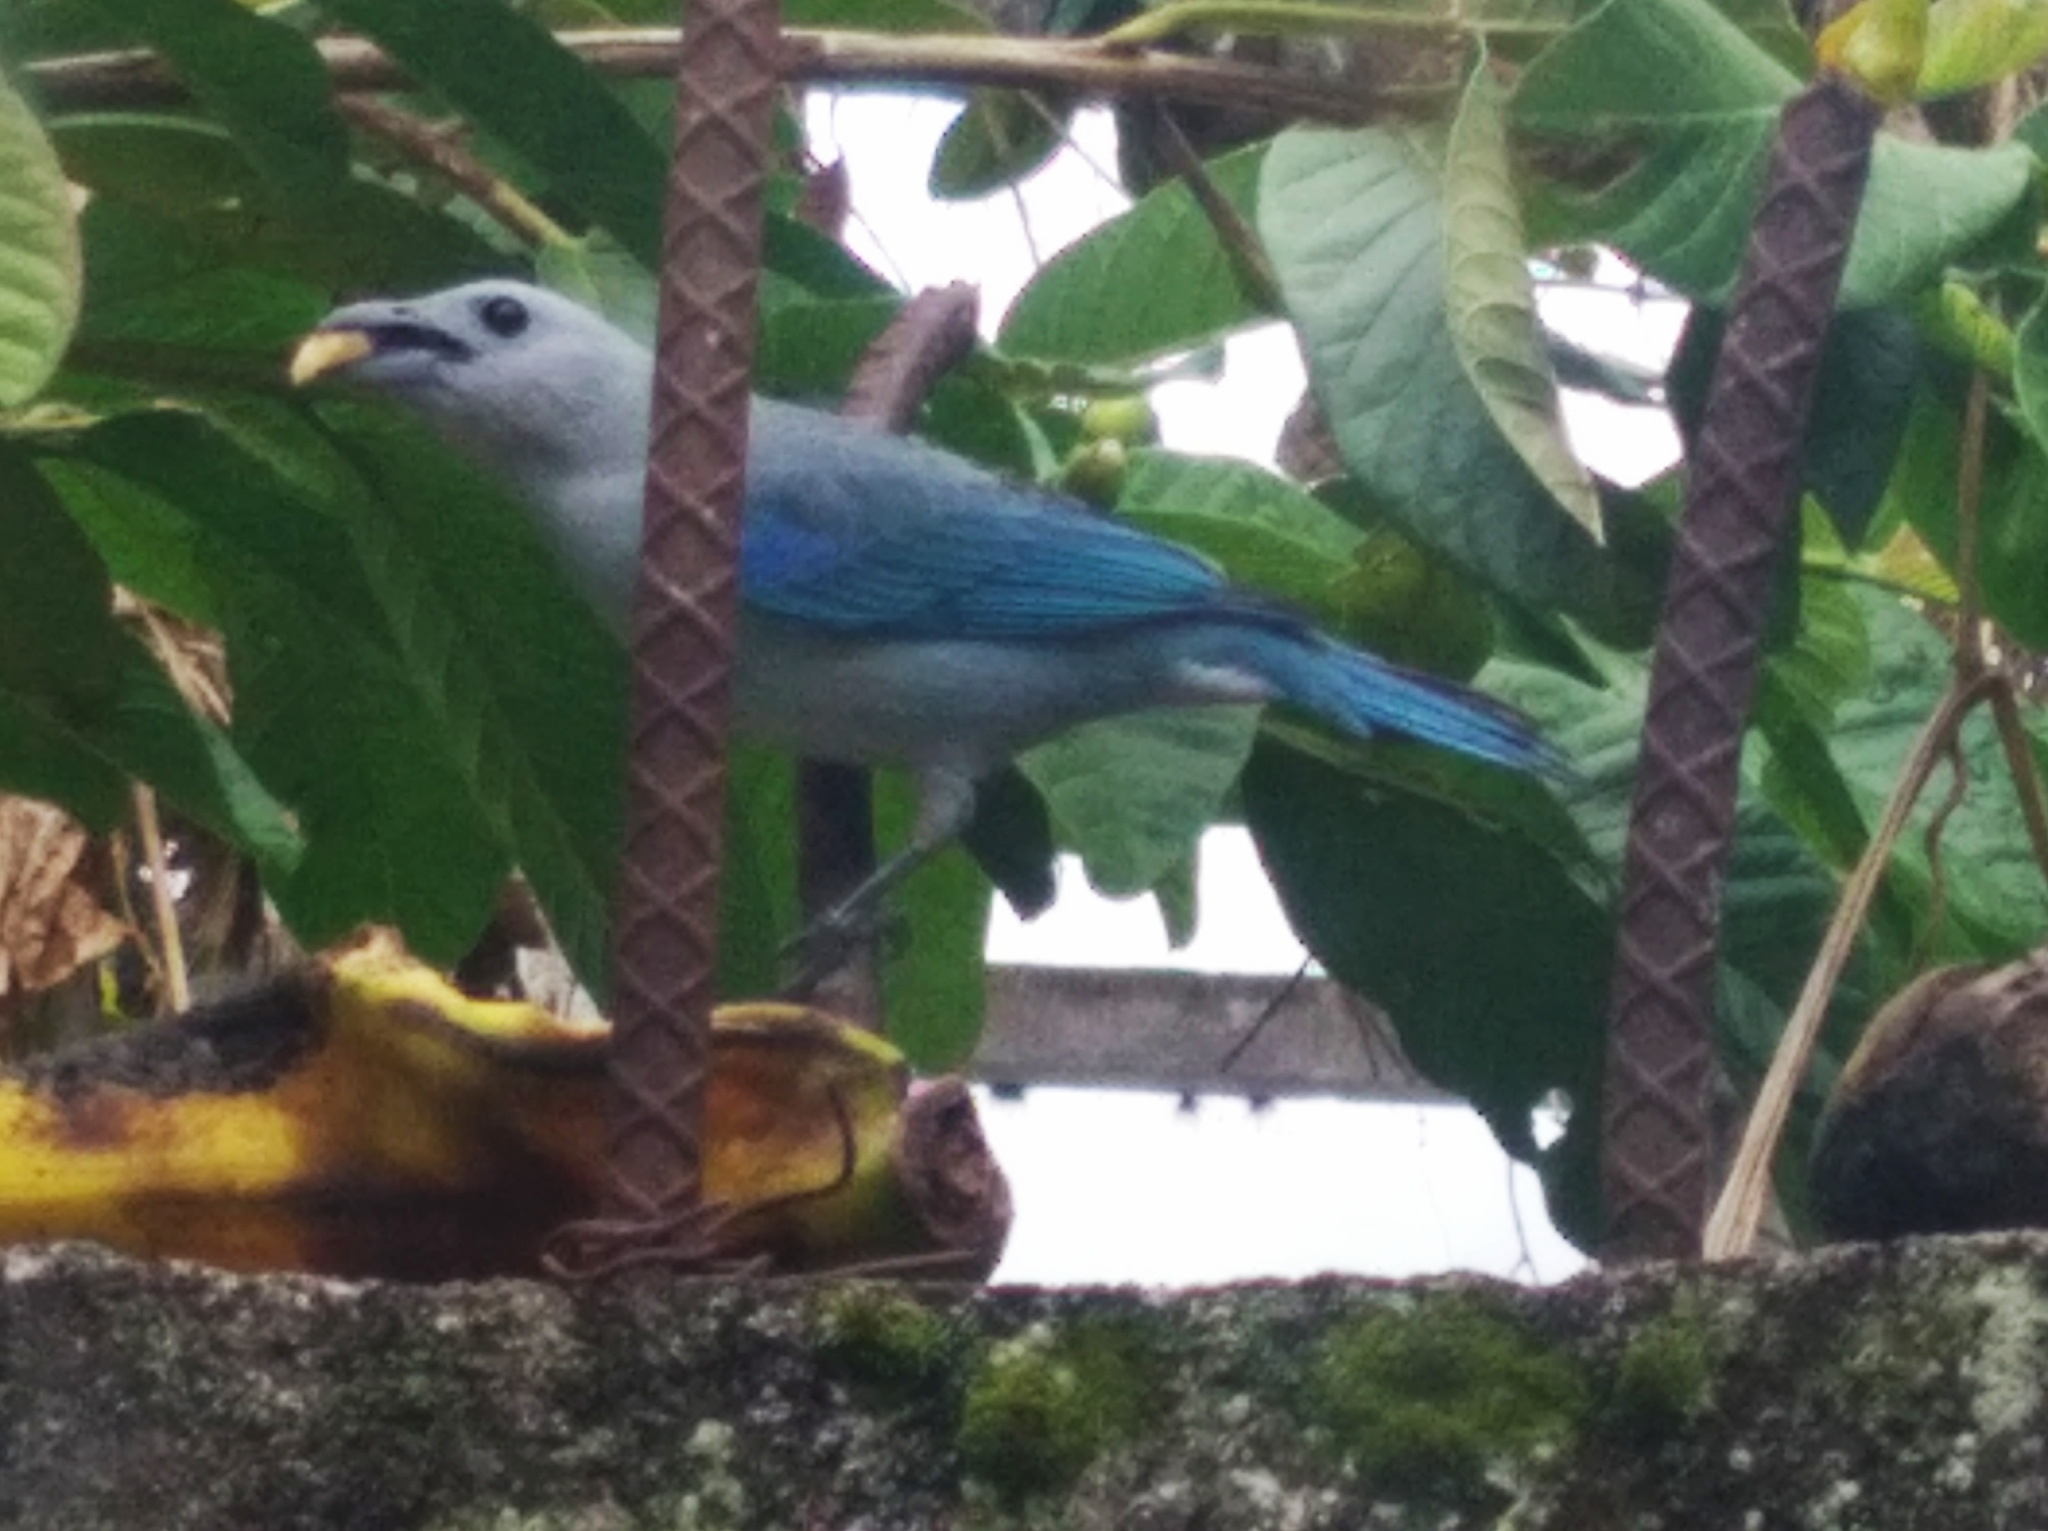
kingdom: Animalia
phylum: Chordata
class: Aves
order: Passeriformes
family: Thraupidae
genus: Thraupis
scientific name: Thraupis episcopus
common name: Blue-grey tanager
